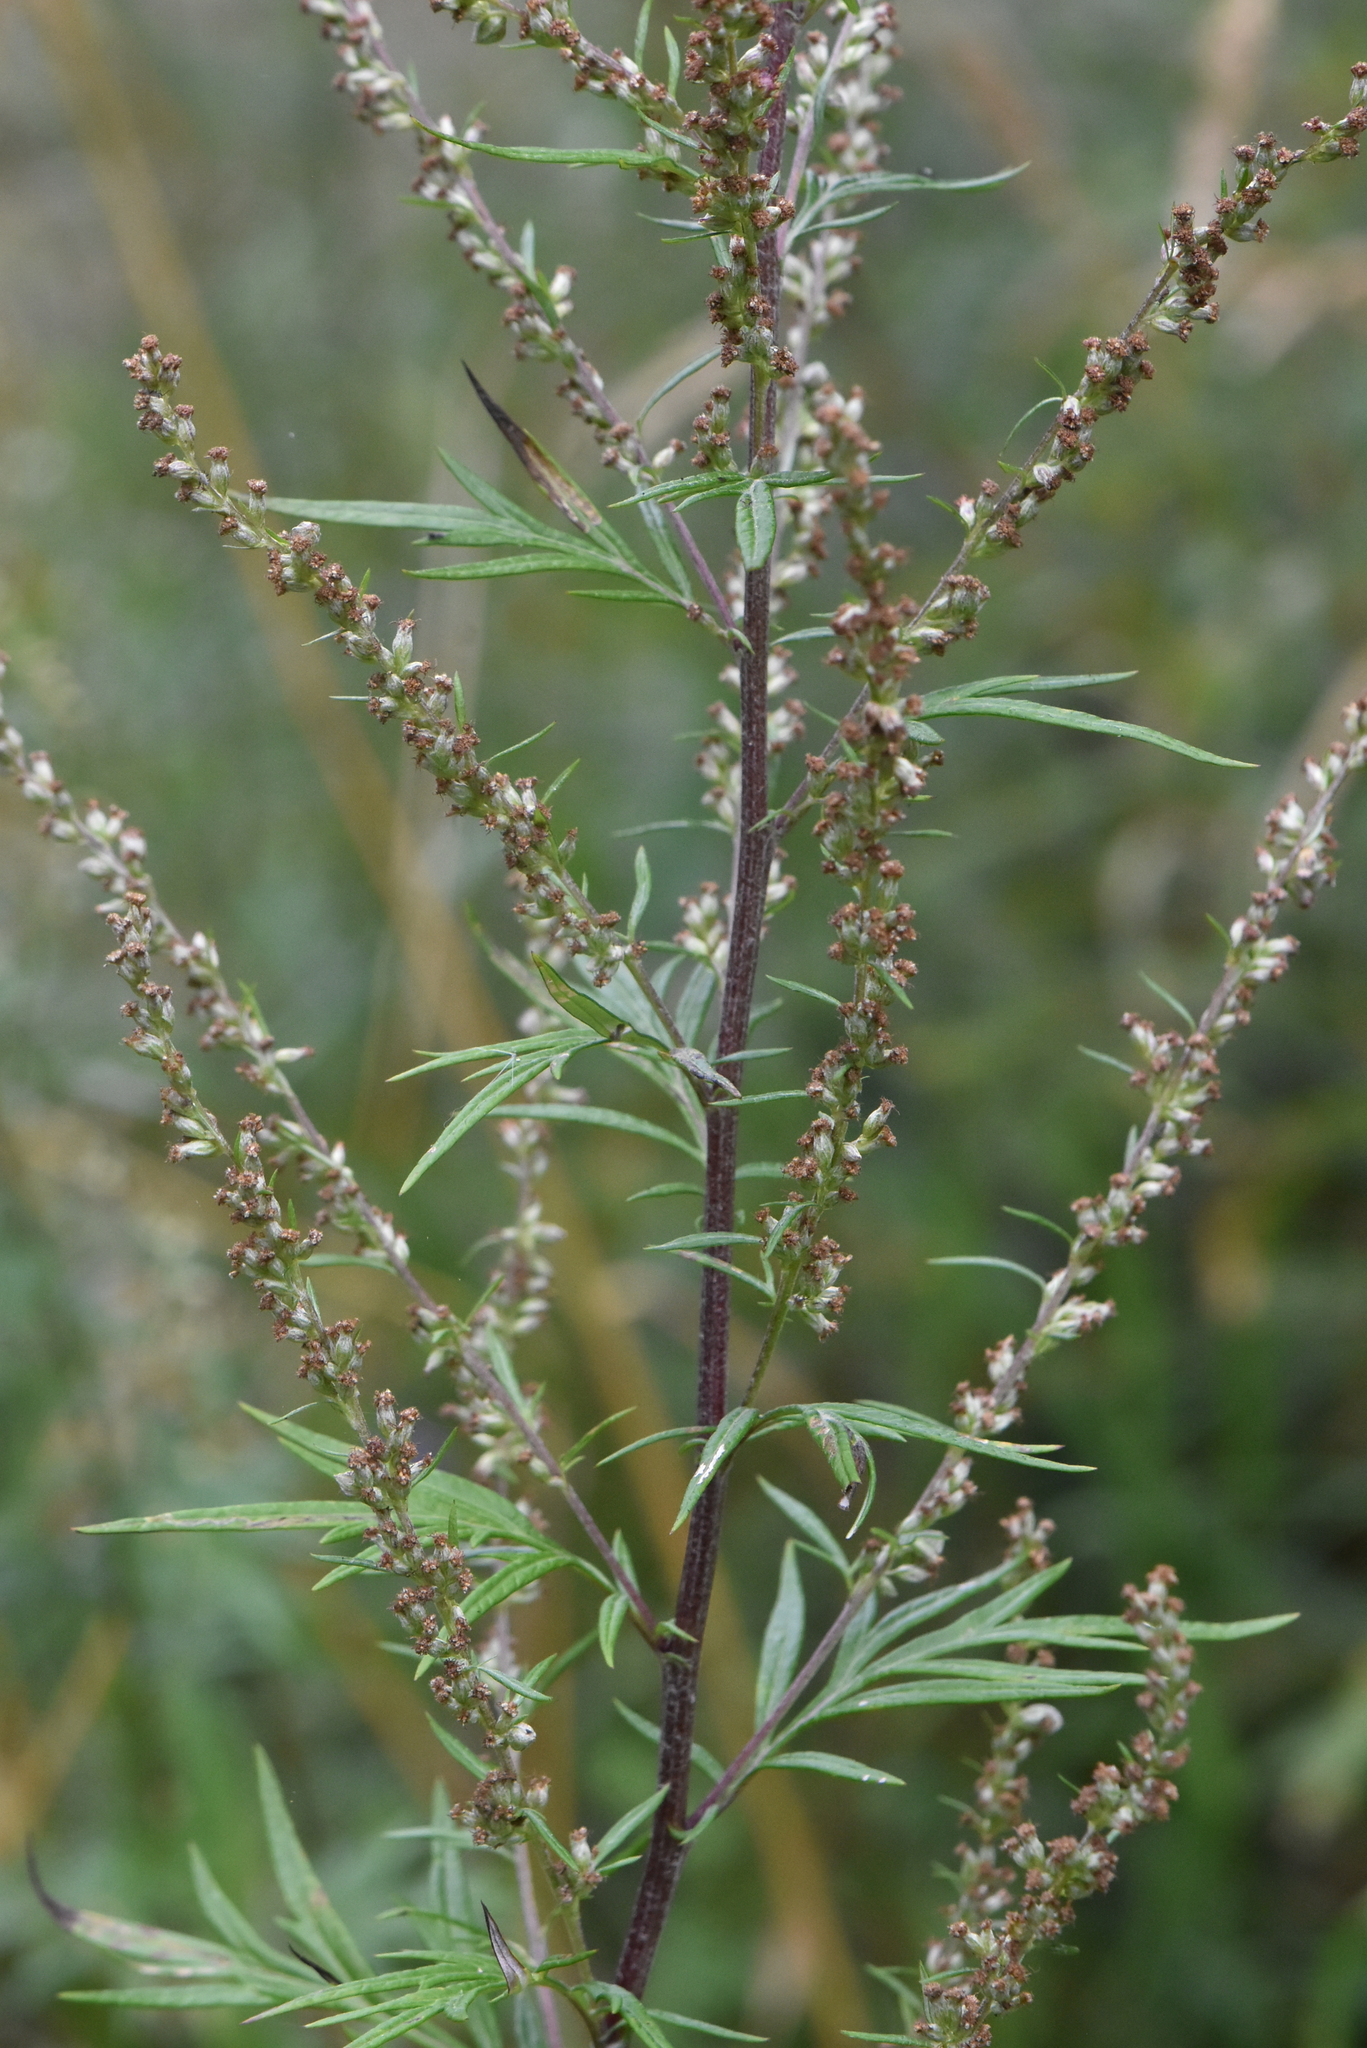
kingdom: Plantae
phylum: Tracheophyta
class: Magnoliopsida
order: Asterales
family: Asteraceae
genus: Artemisia
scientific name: Artemisia vulgaris
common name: Mugwort
